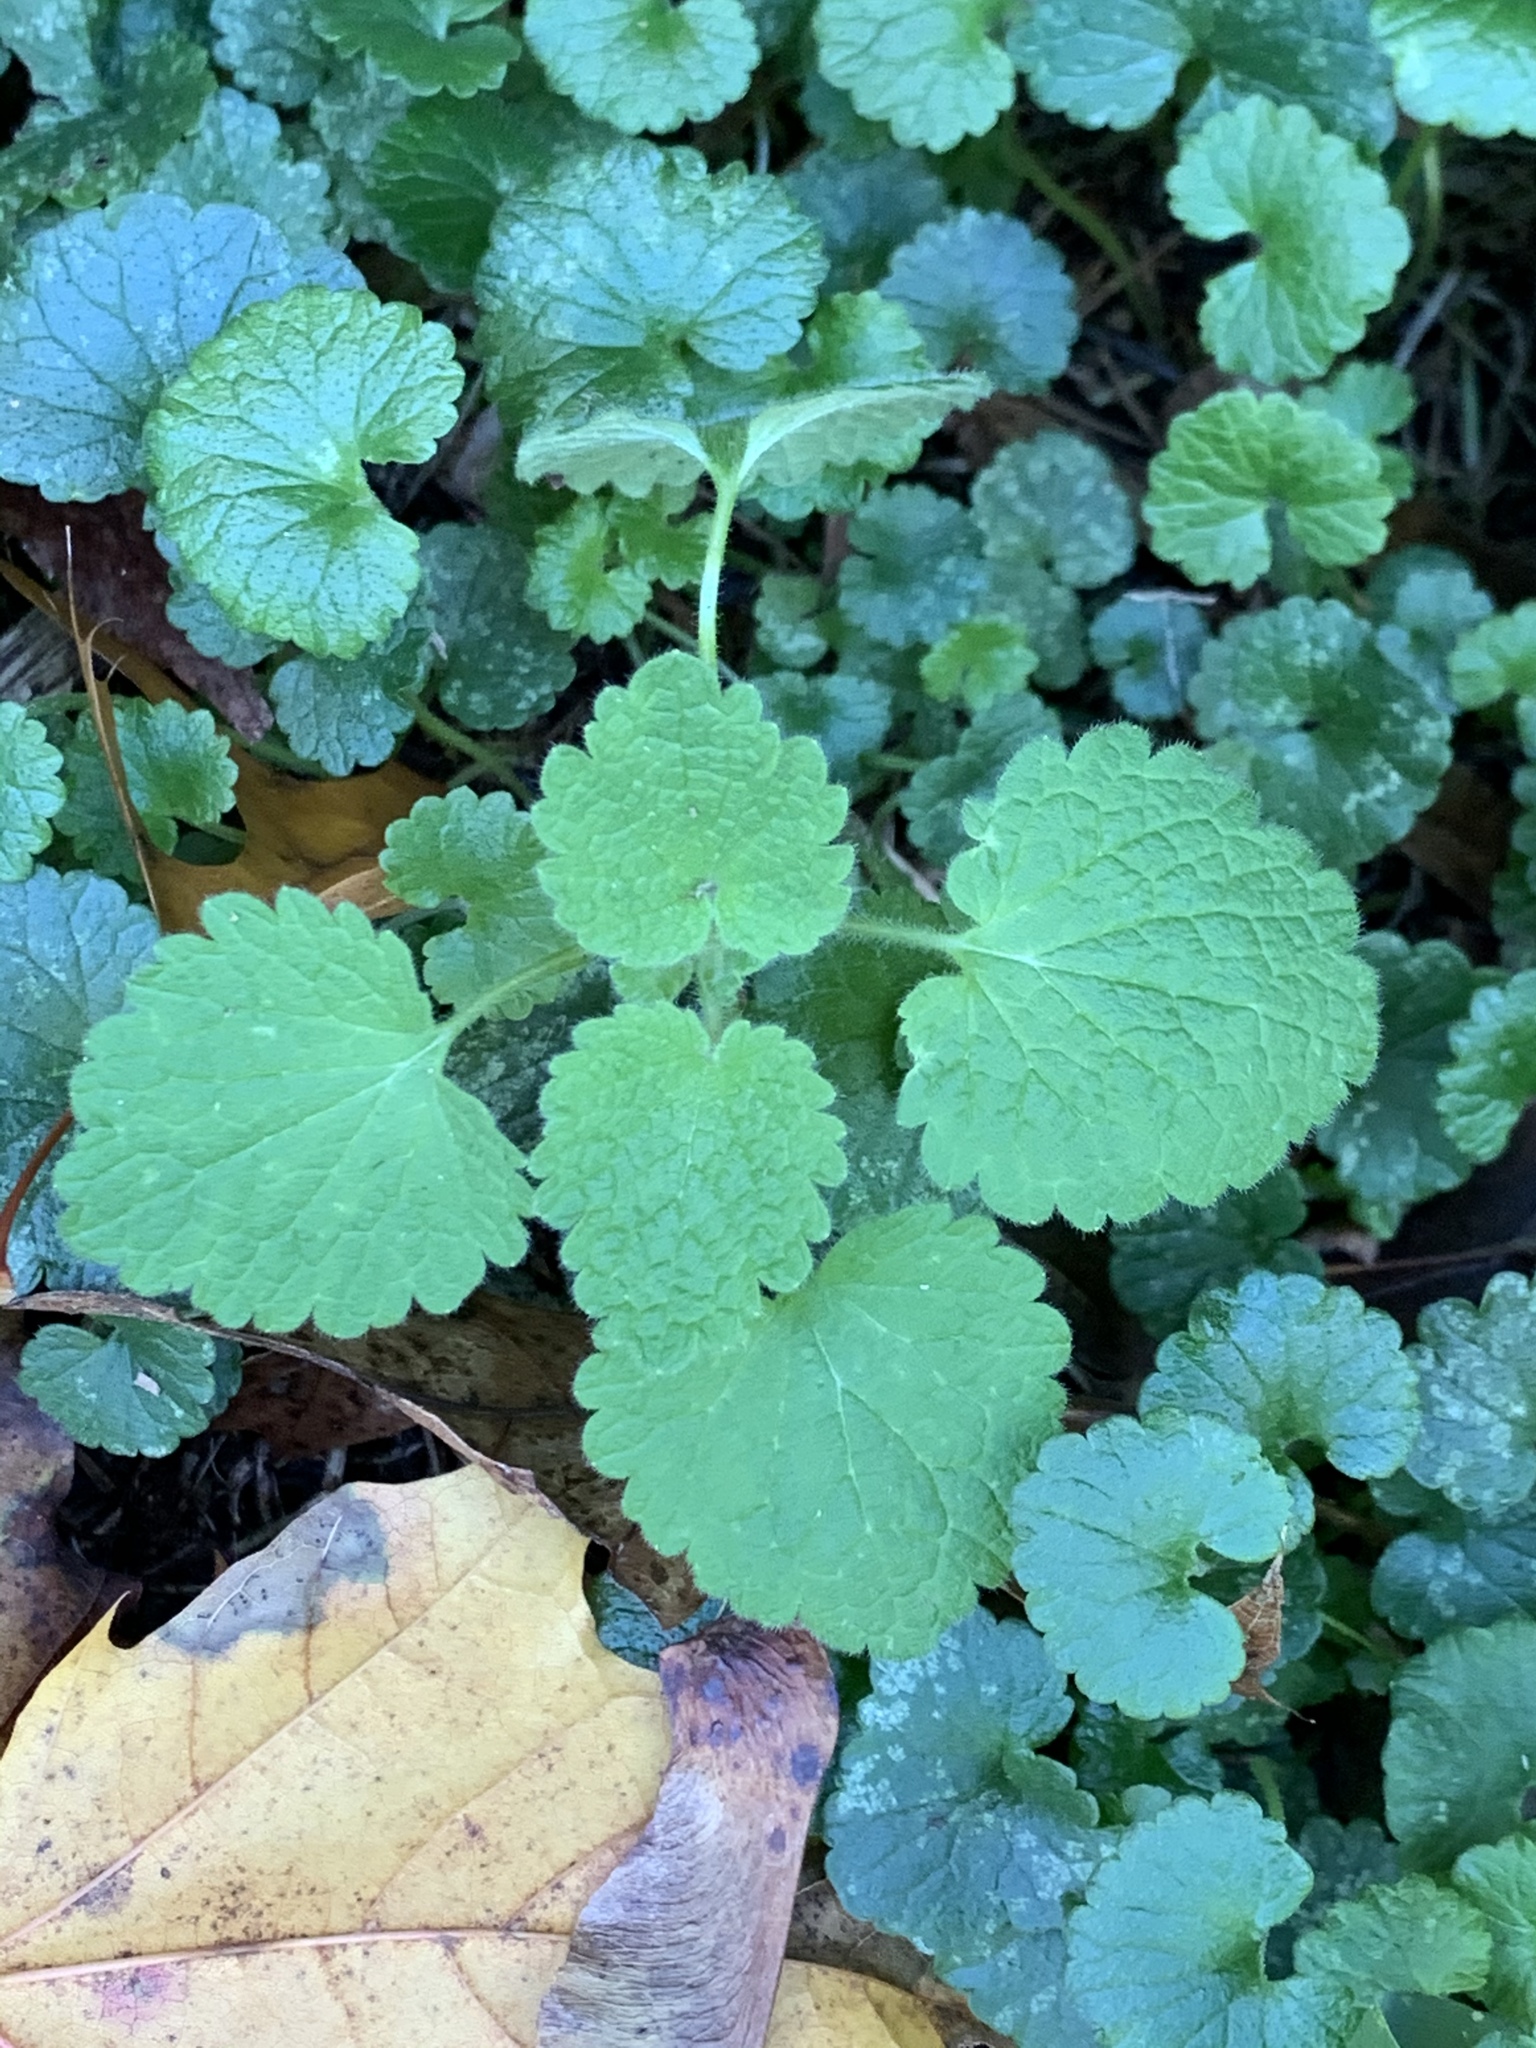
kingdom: Plantae
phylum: Tracheophyta
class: Magnoliopsida
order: Lamiales
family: Lamiaceae
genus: Lamium
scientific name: Lamium purpureum
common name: Red dead-nettle
